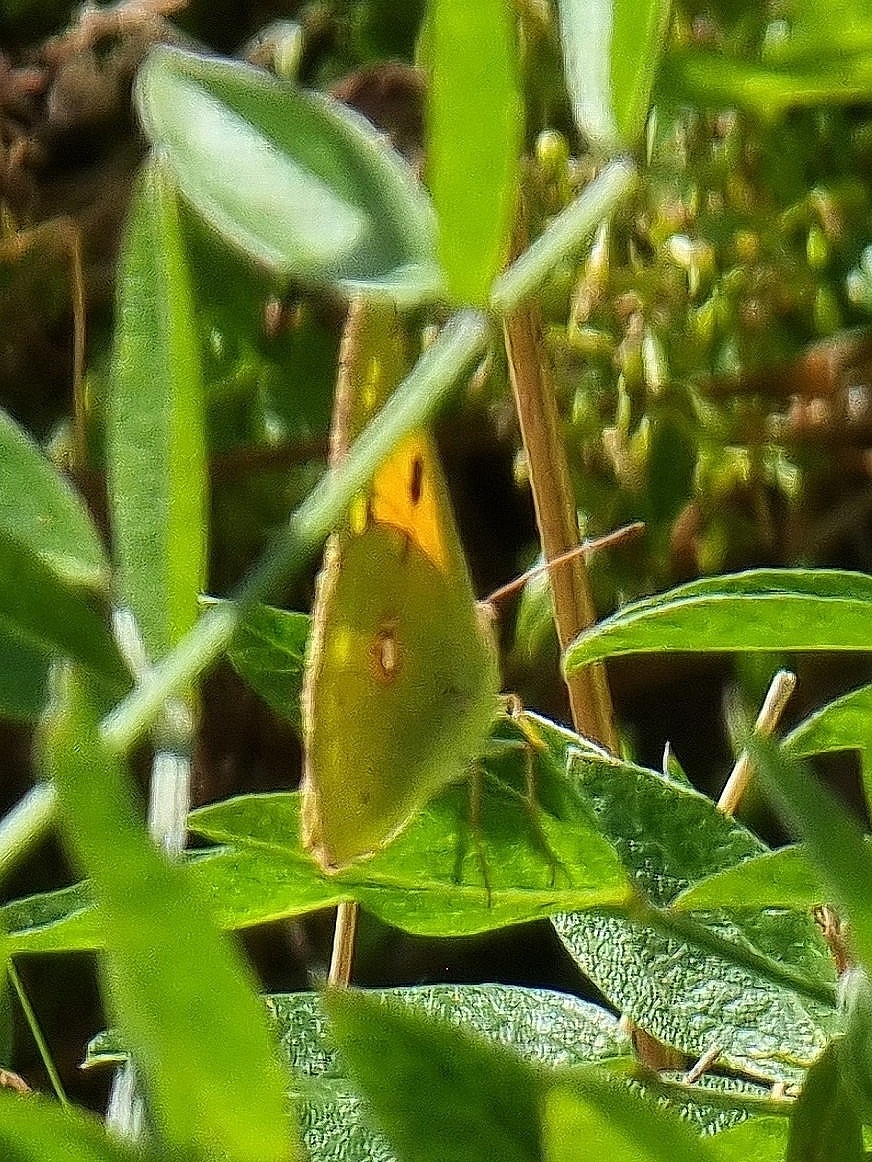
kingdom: Animalia
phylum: Arthropoda
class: Insecta
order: Lepidoptera
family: Pieridae
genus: Colias
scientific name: Colias croceus
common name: Clouded yellow
